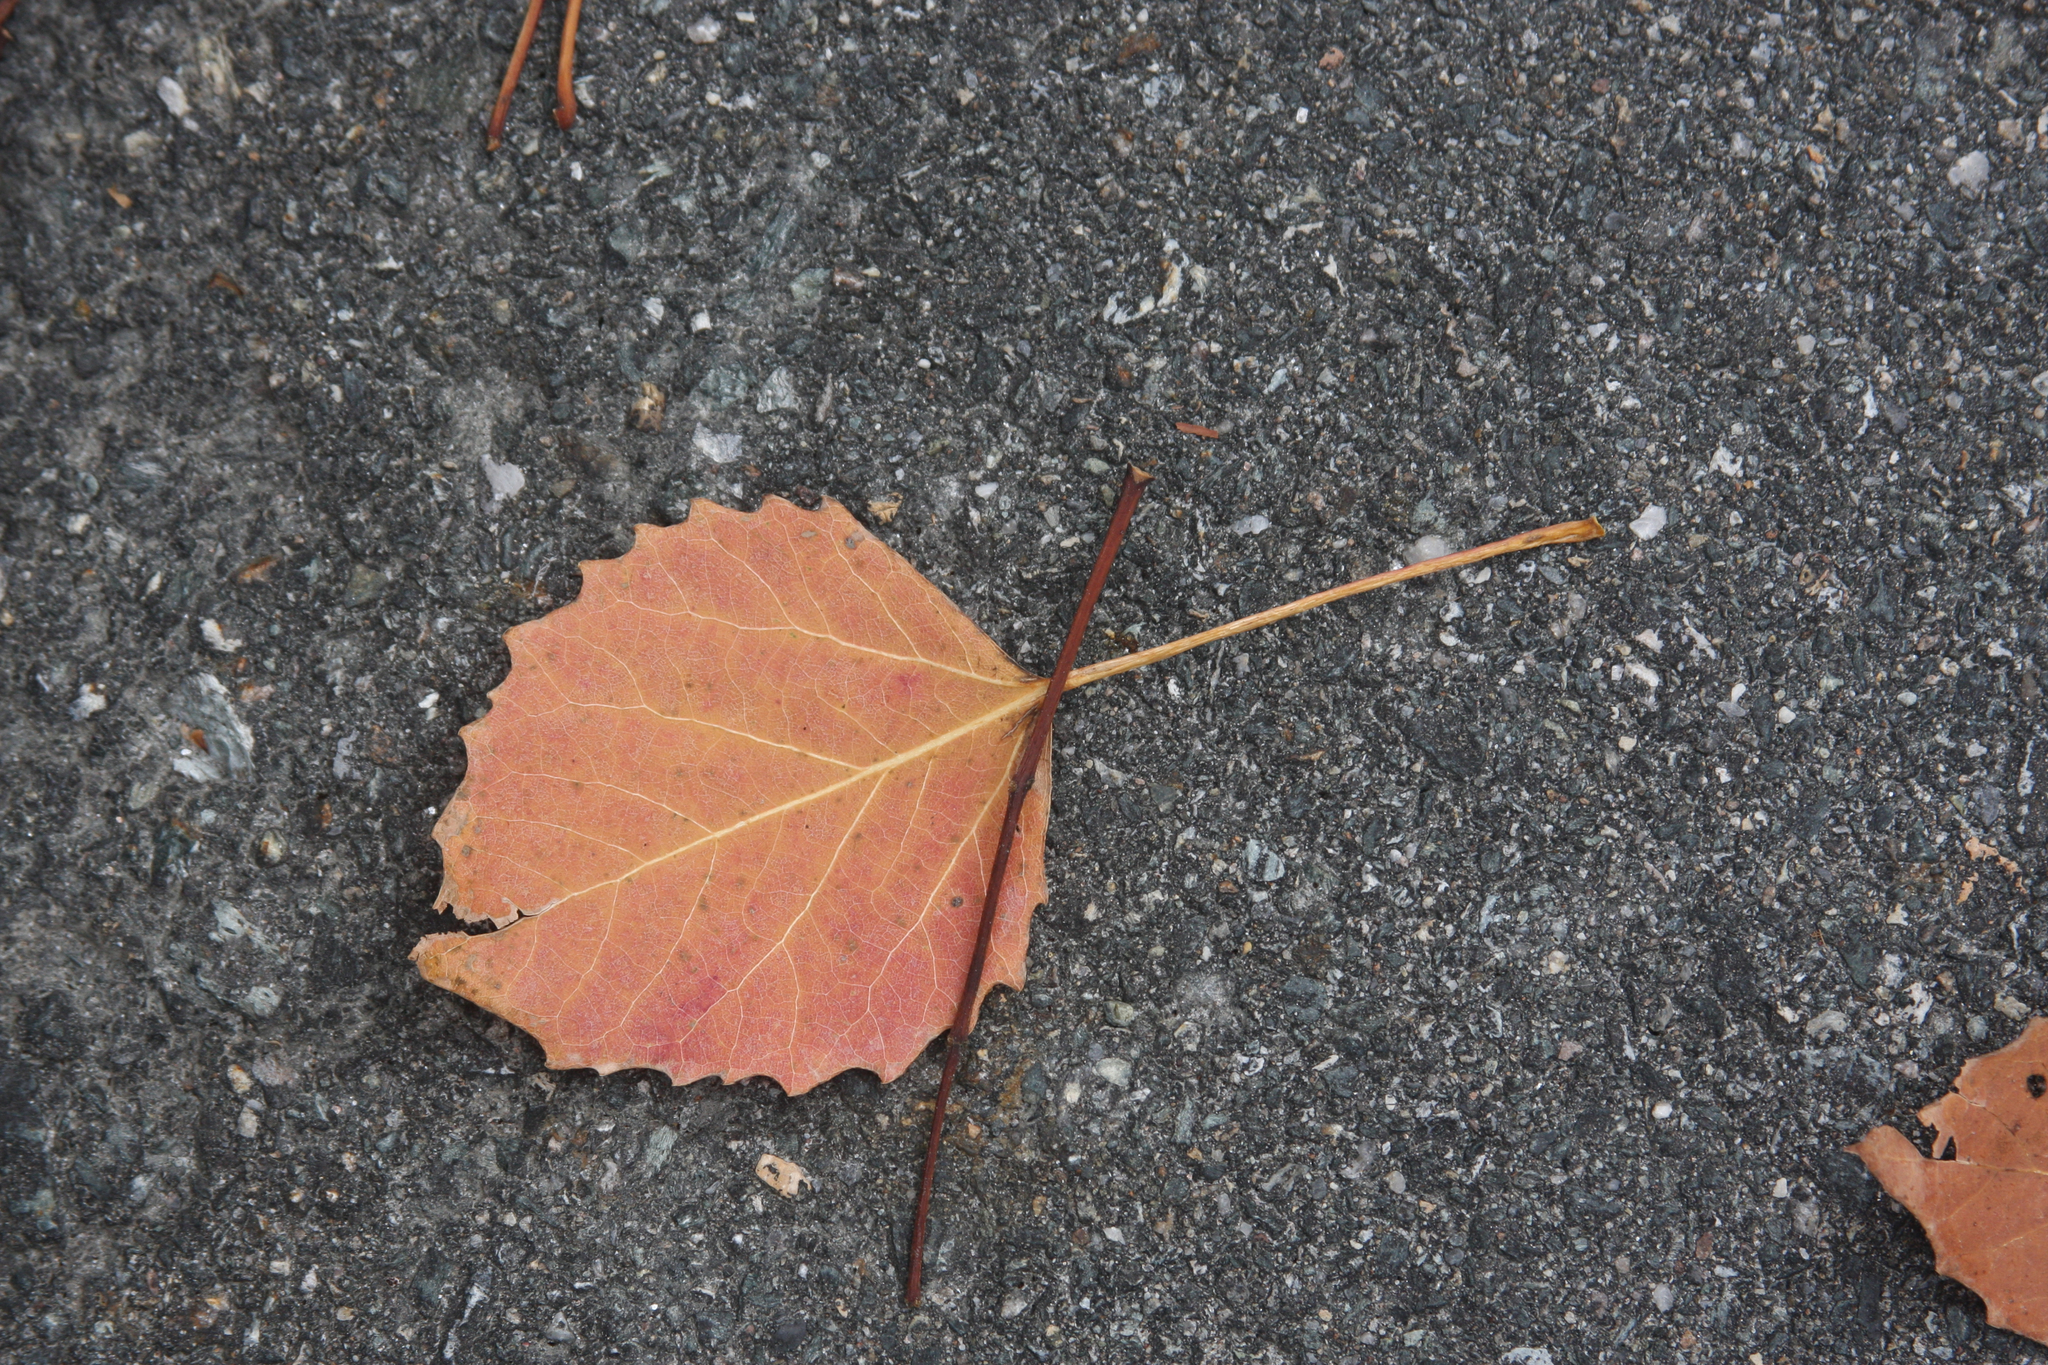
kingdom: Plantae
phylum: Tracheophyta
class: Magnoliopsida
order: Malpighiales
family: Salicaceae
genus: Populus
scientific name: Populus grandidentata
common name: Bigtooth aspen
